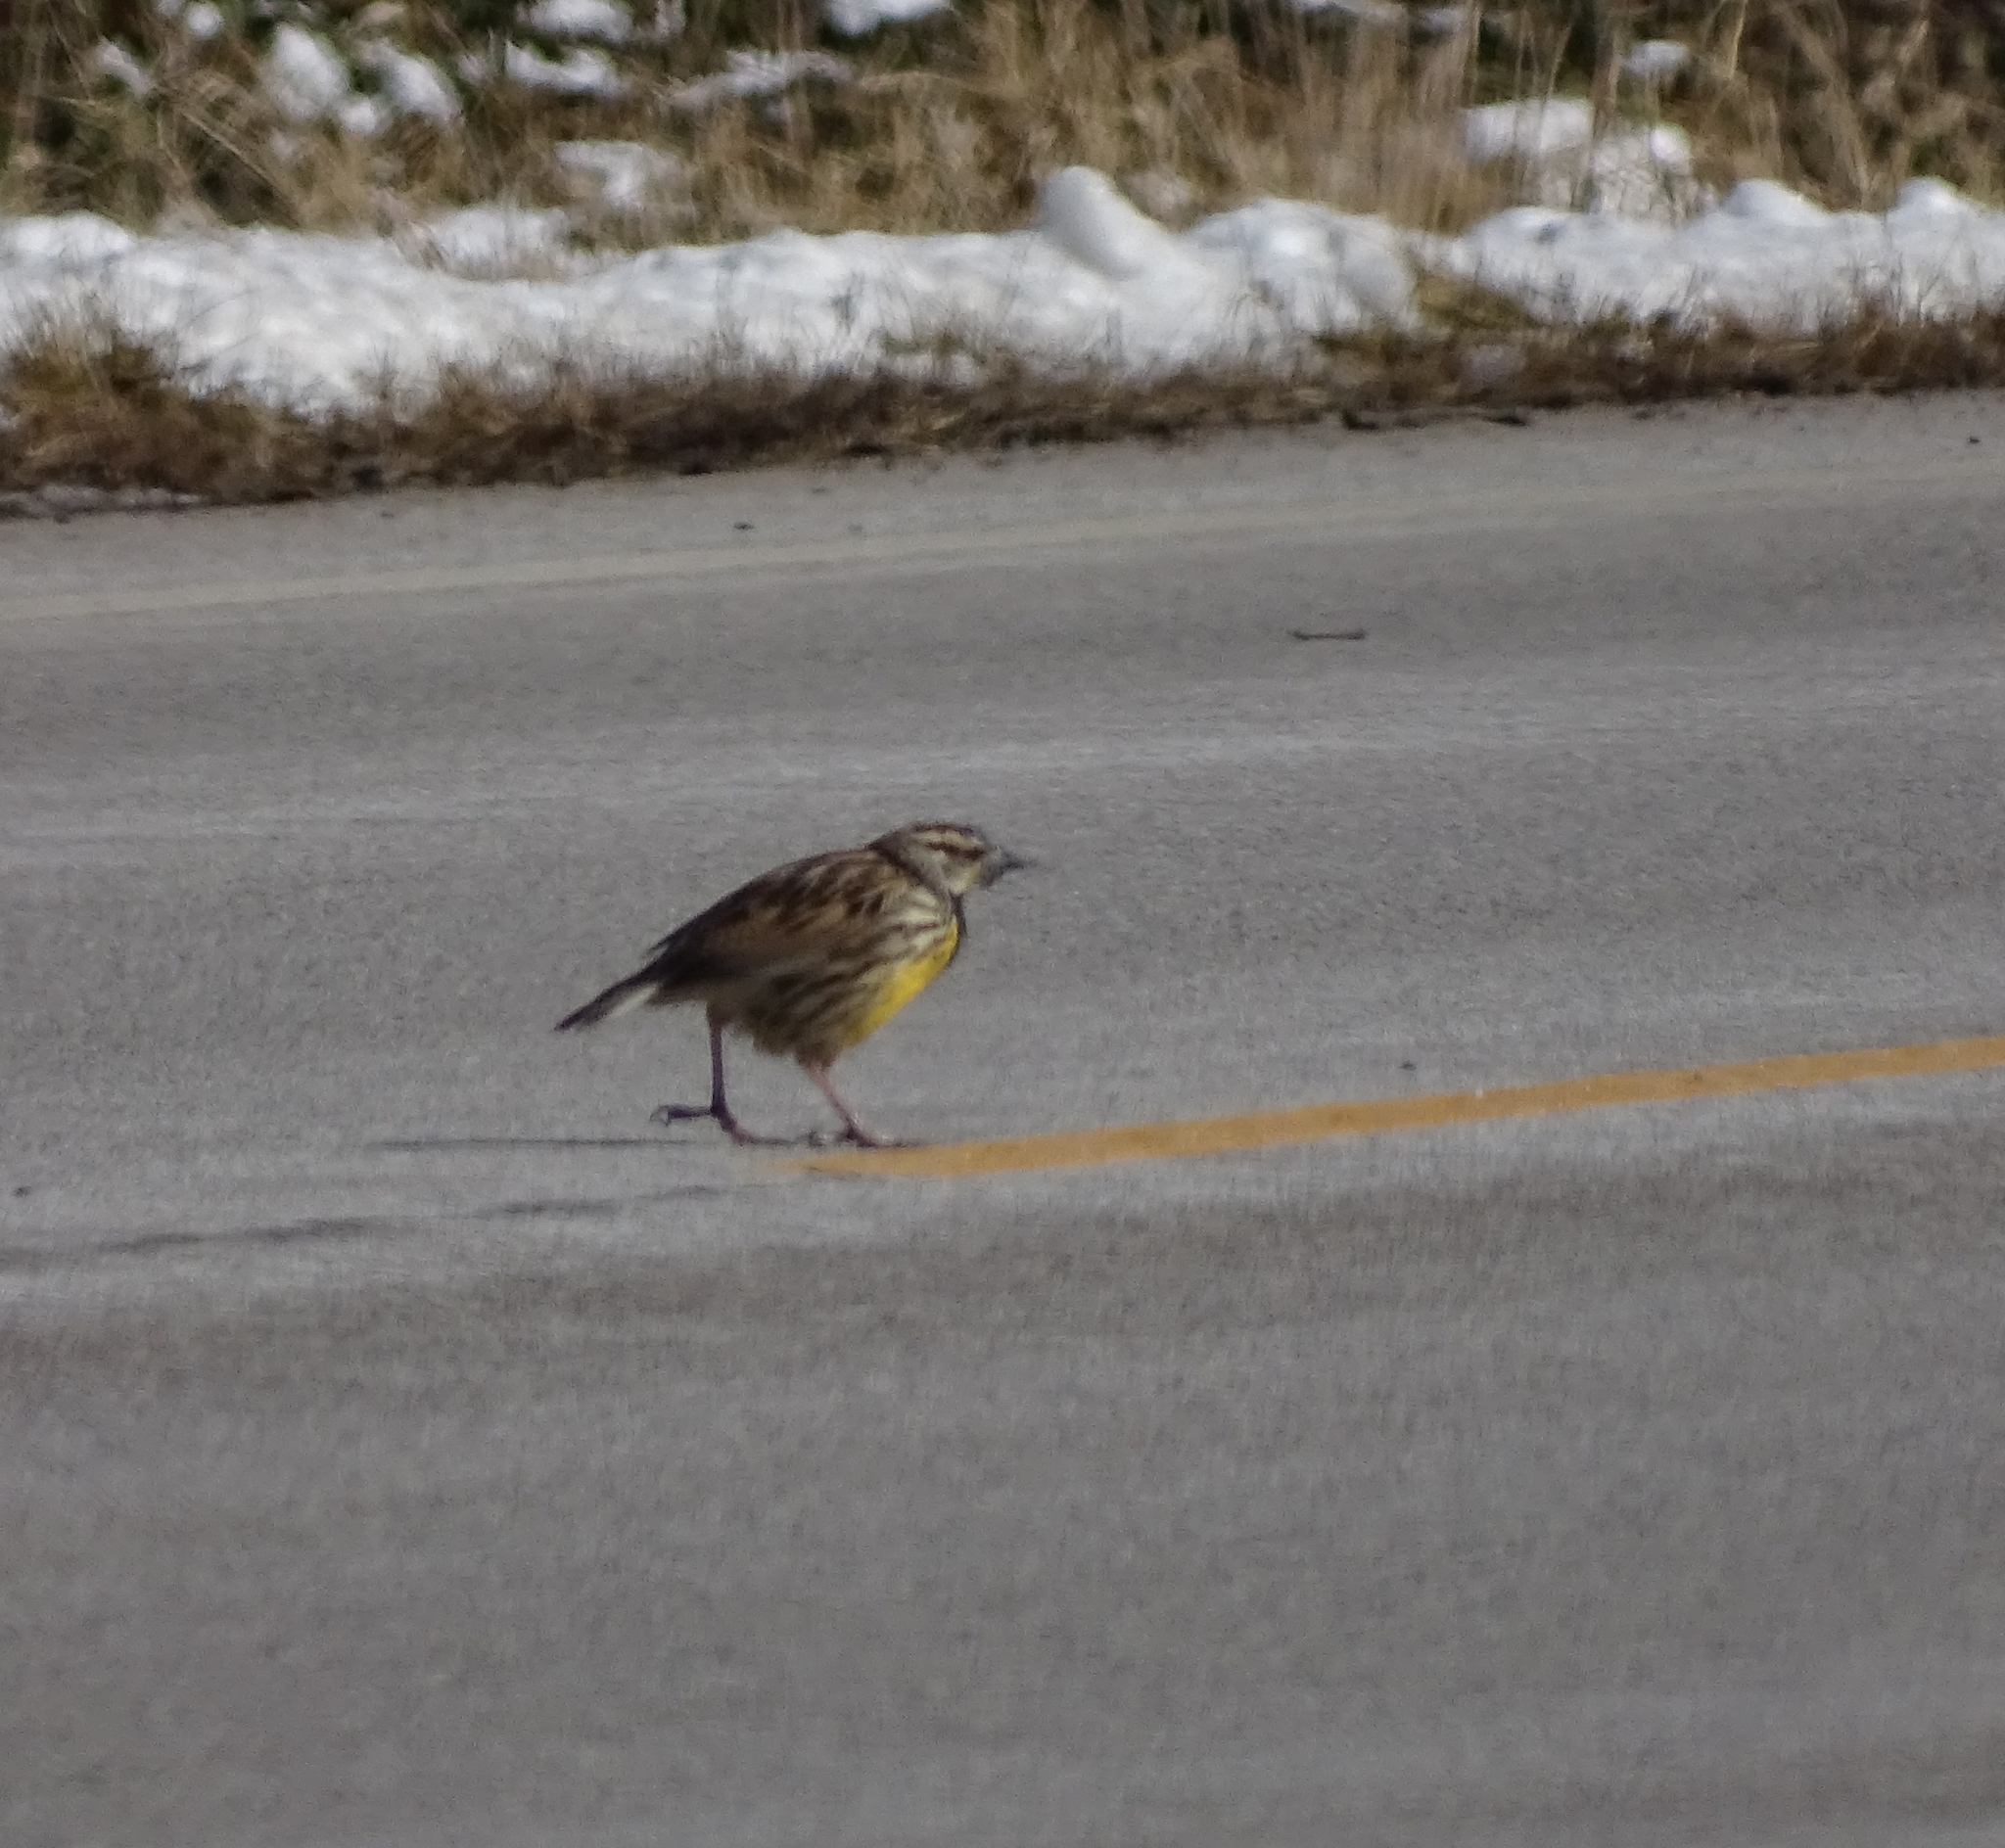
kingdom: Animalia
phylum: Chordata
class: Aves
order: Passeriformes
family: Icteridae
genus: Sturnella
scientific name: Sturnella magna
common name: Eastern meadowlark
